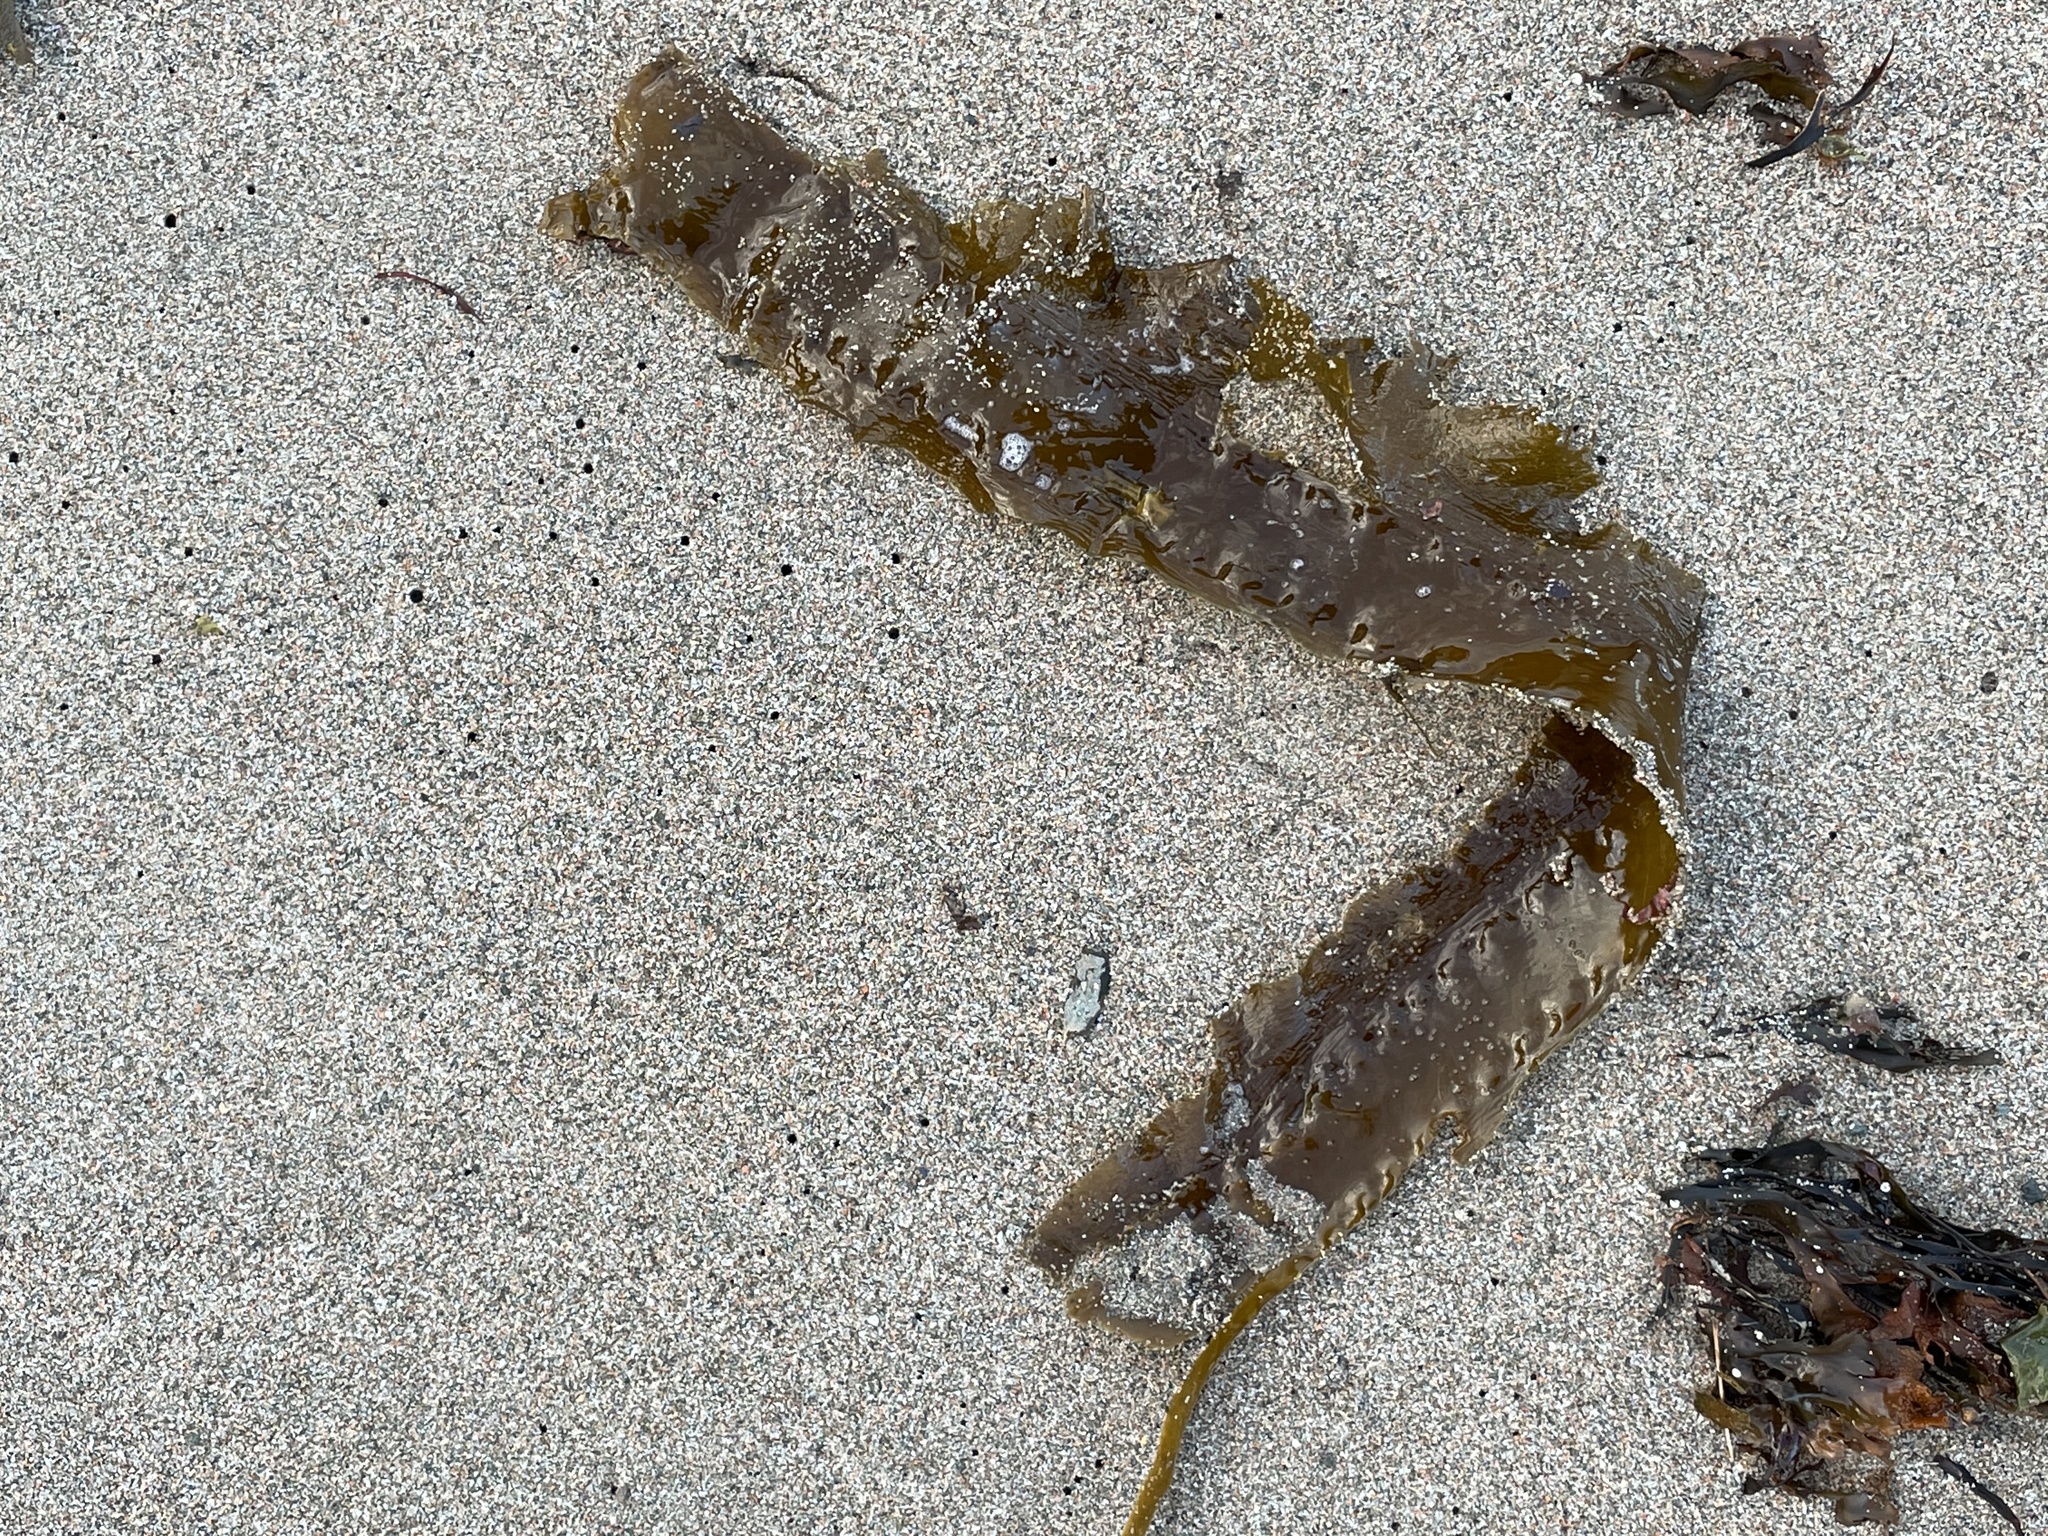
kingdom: Chromista
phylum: Ochrophyta
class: Phaeophyceae
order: Laminariales
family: Laminariaceae
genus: Saccharina
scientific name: Saccharina latissima
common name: Poor man's weather glass
